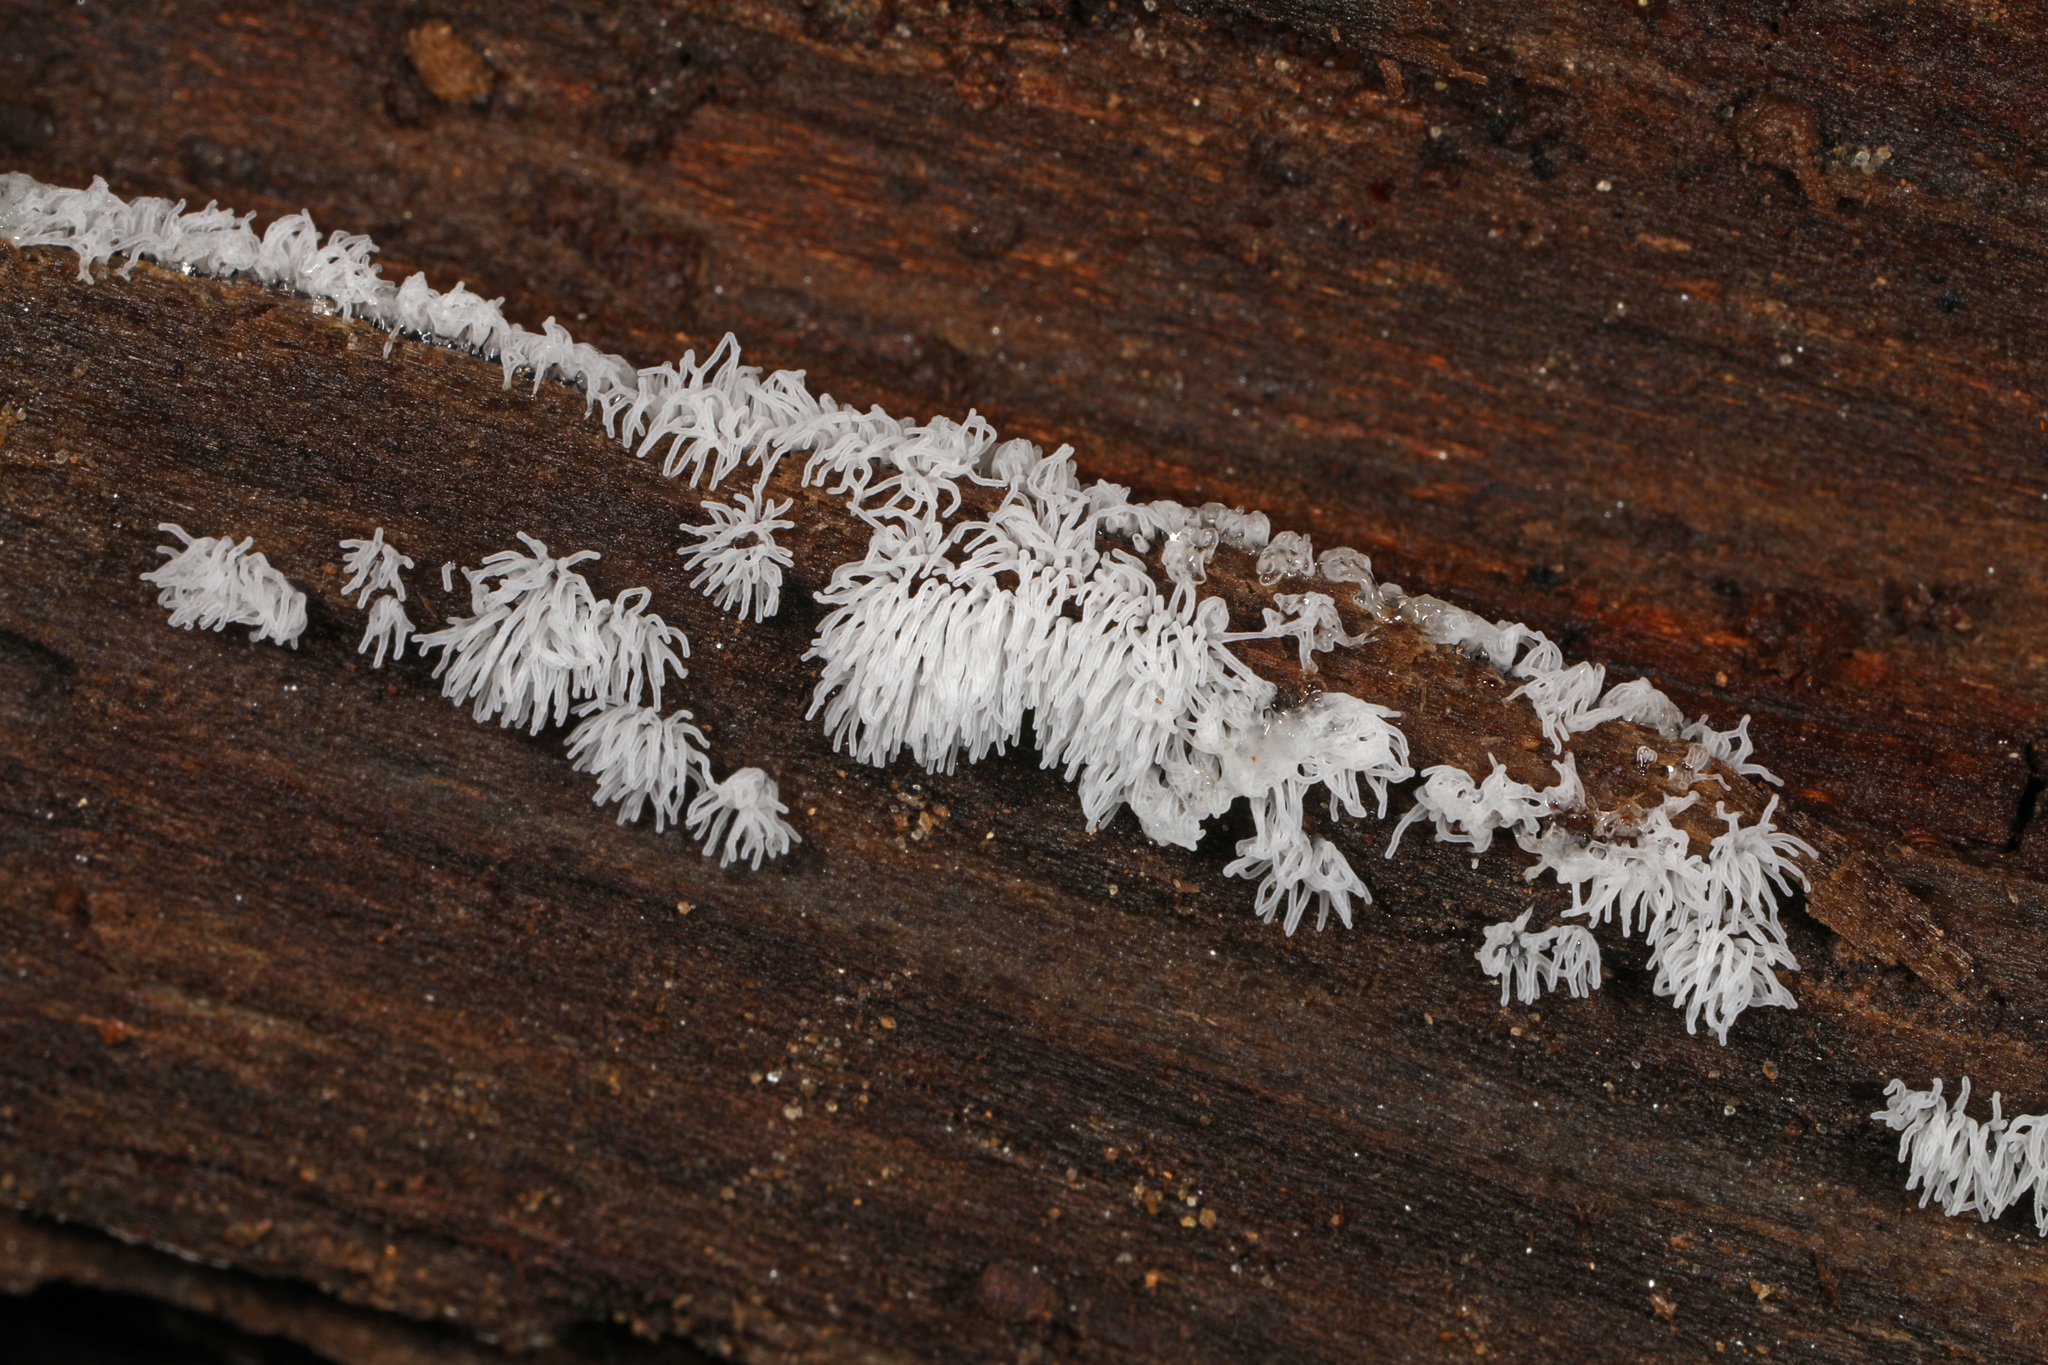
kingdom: Protozoa
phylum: Mycetozoa
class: Protosteliomycetes
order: Ceratiomyxales
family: Ceratiomyxaceae
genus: Ceratiomyxa
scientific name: Ceratiomyxa fruticulosa
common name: Honeycomb coral slime mold
